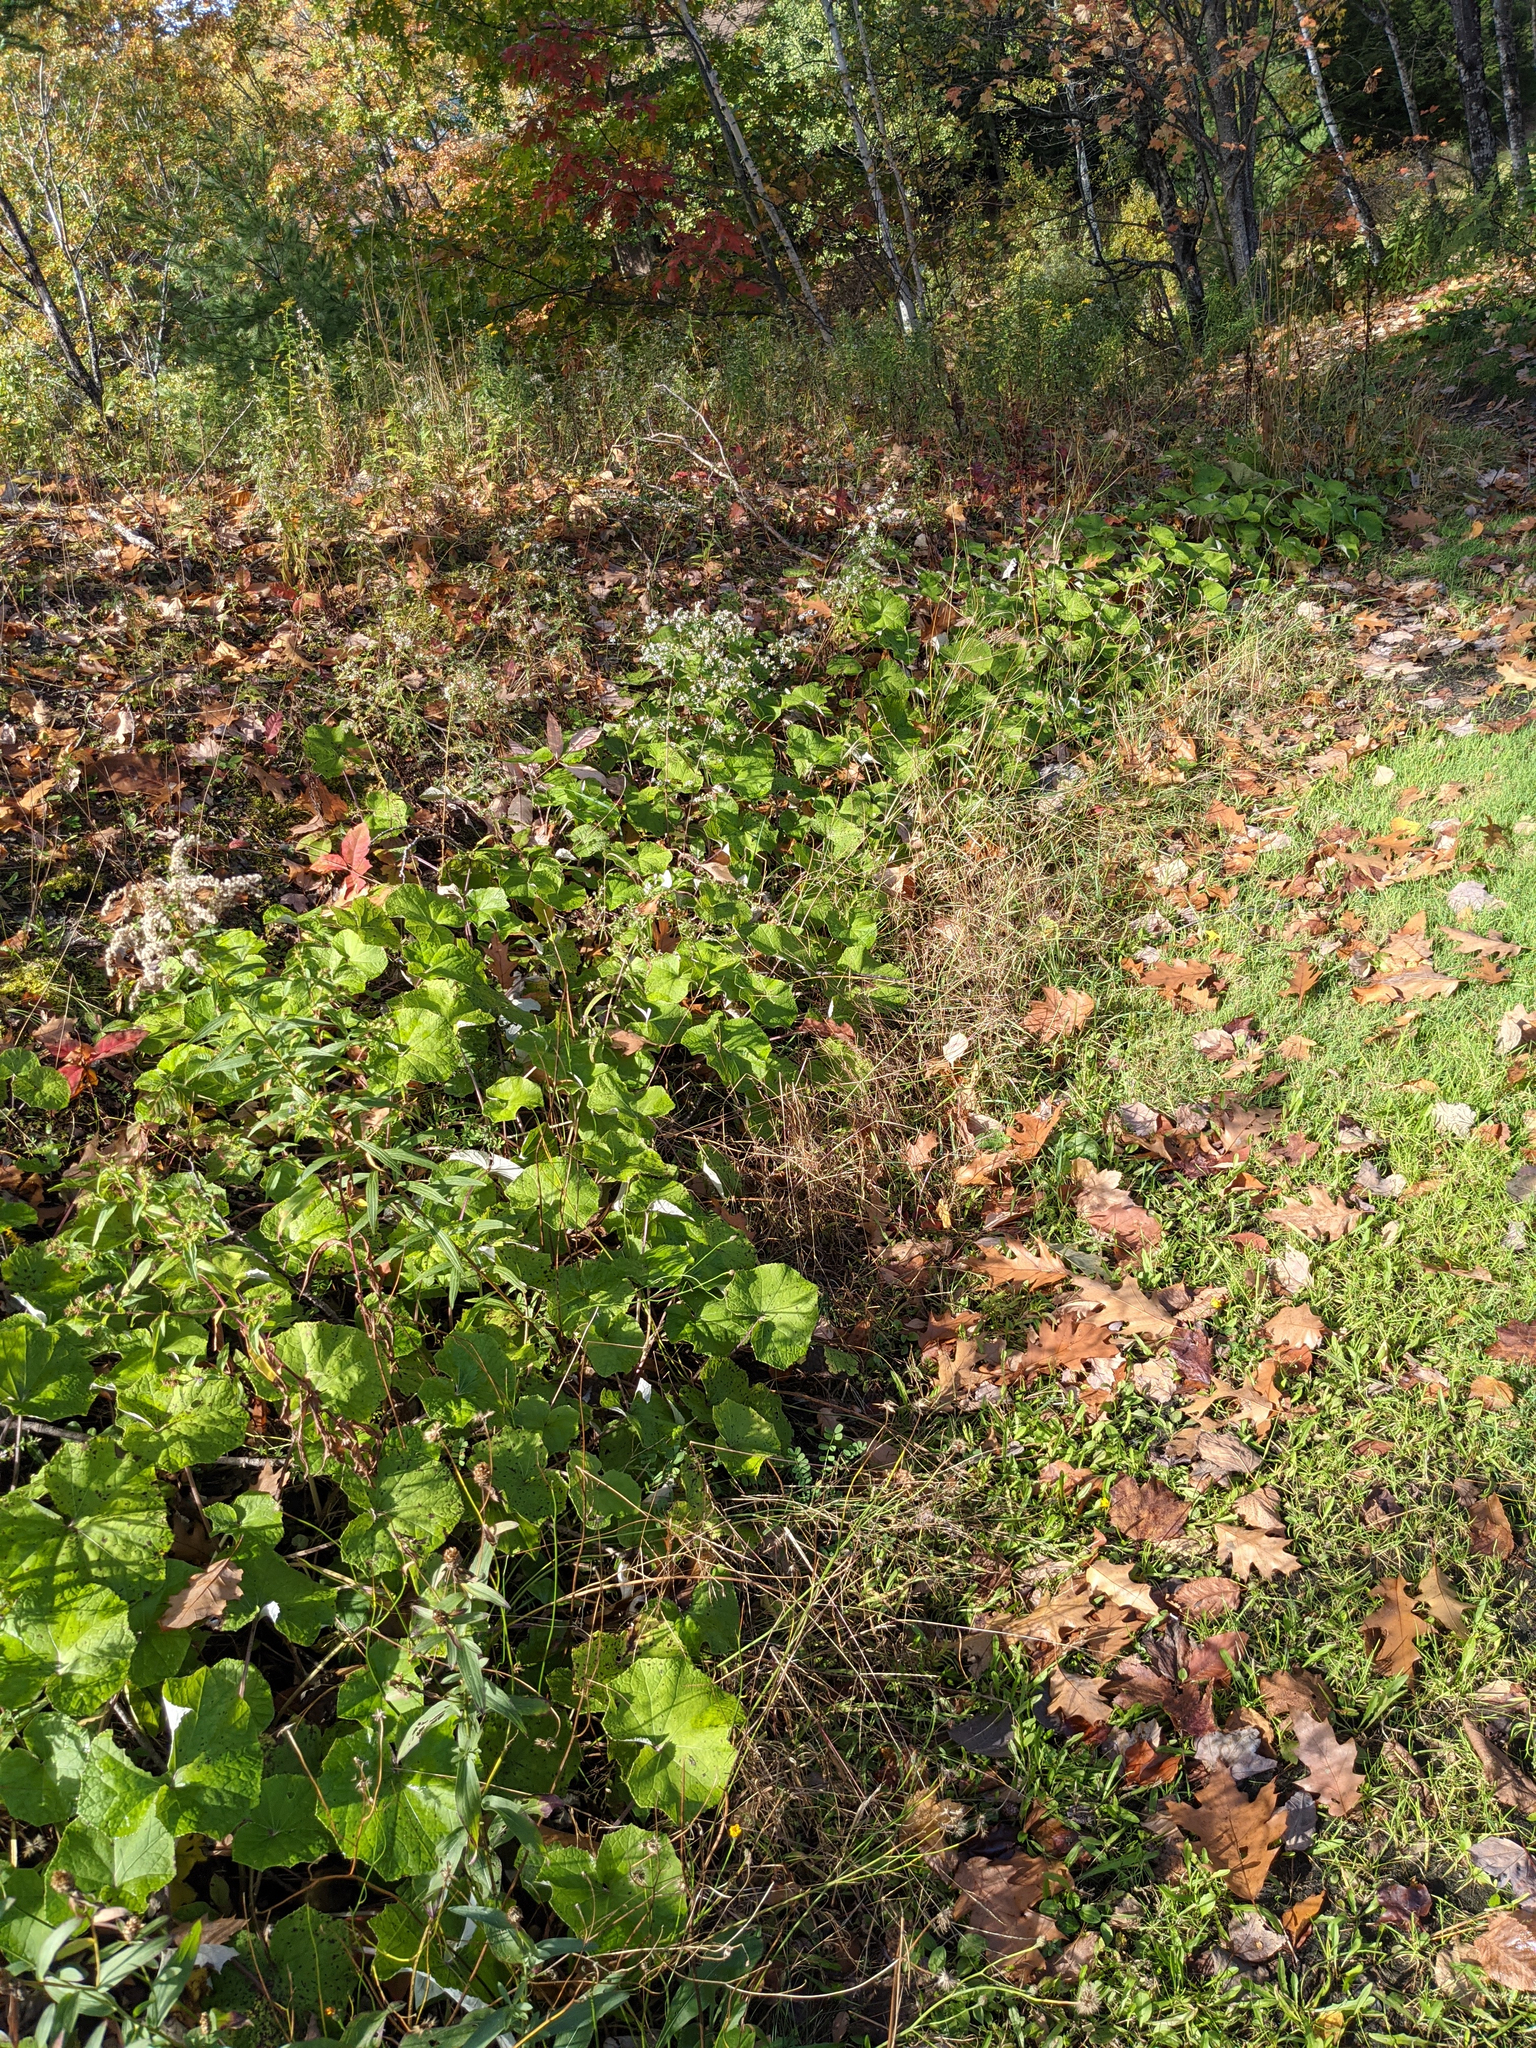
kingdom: Plantae
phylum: Tracheophyta
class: Magnoliopsida
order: Asterales
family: Asteraceae
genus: Tussilago
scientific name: Tussilago farfara
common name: Coltsfoot
